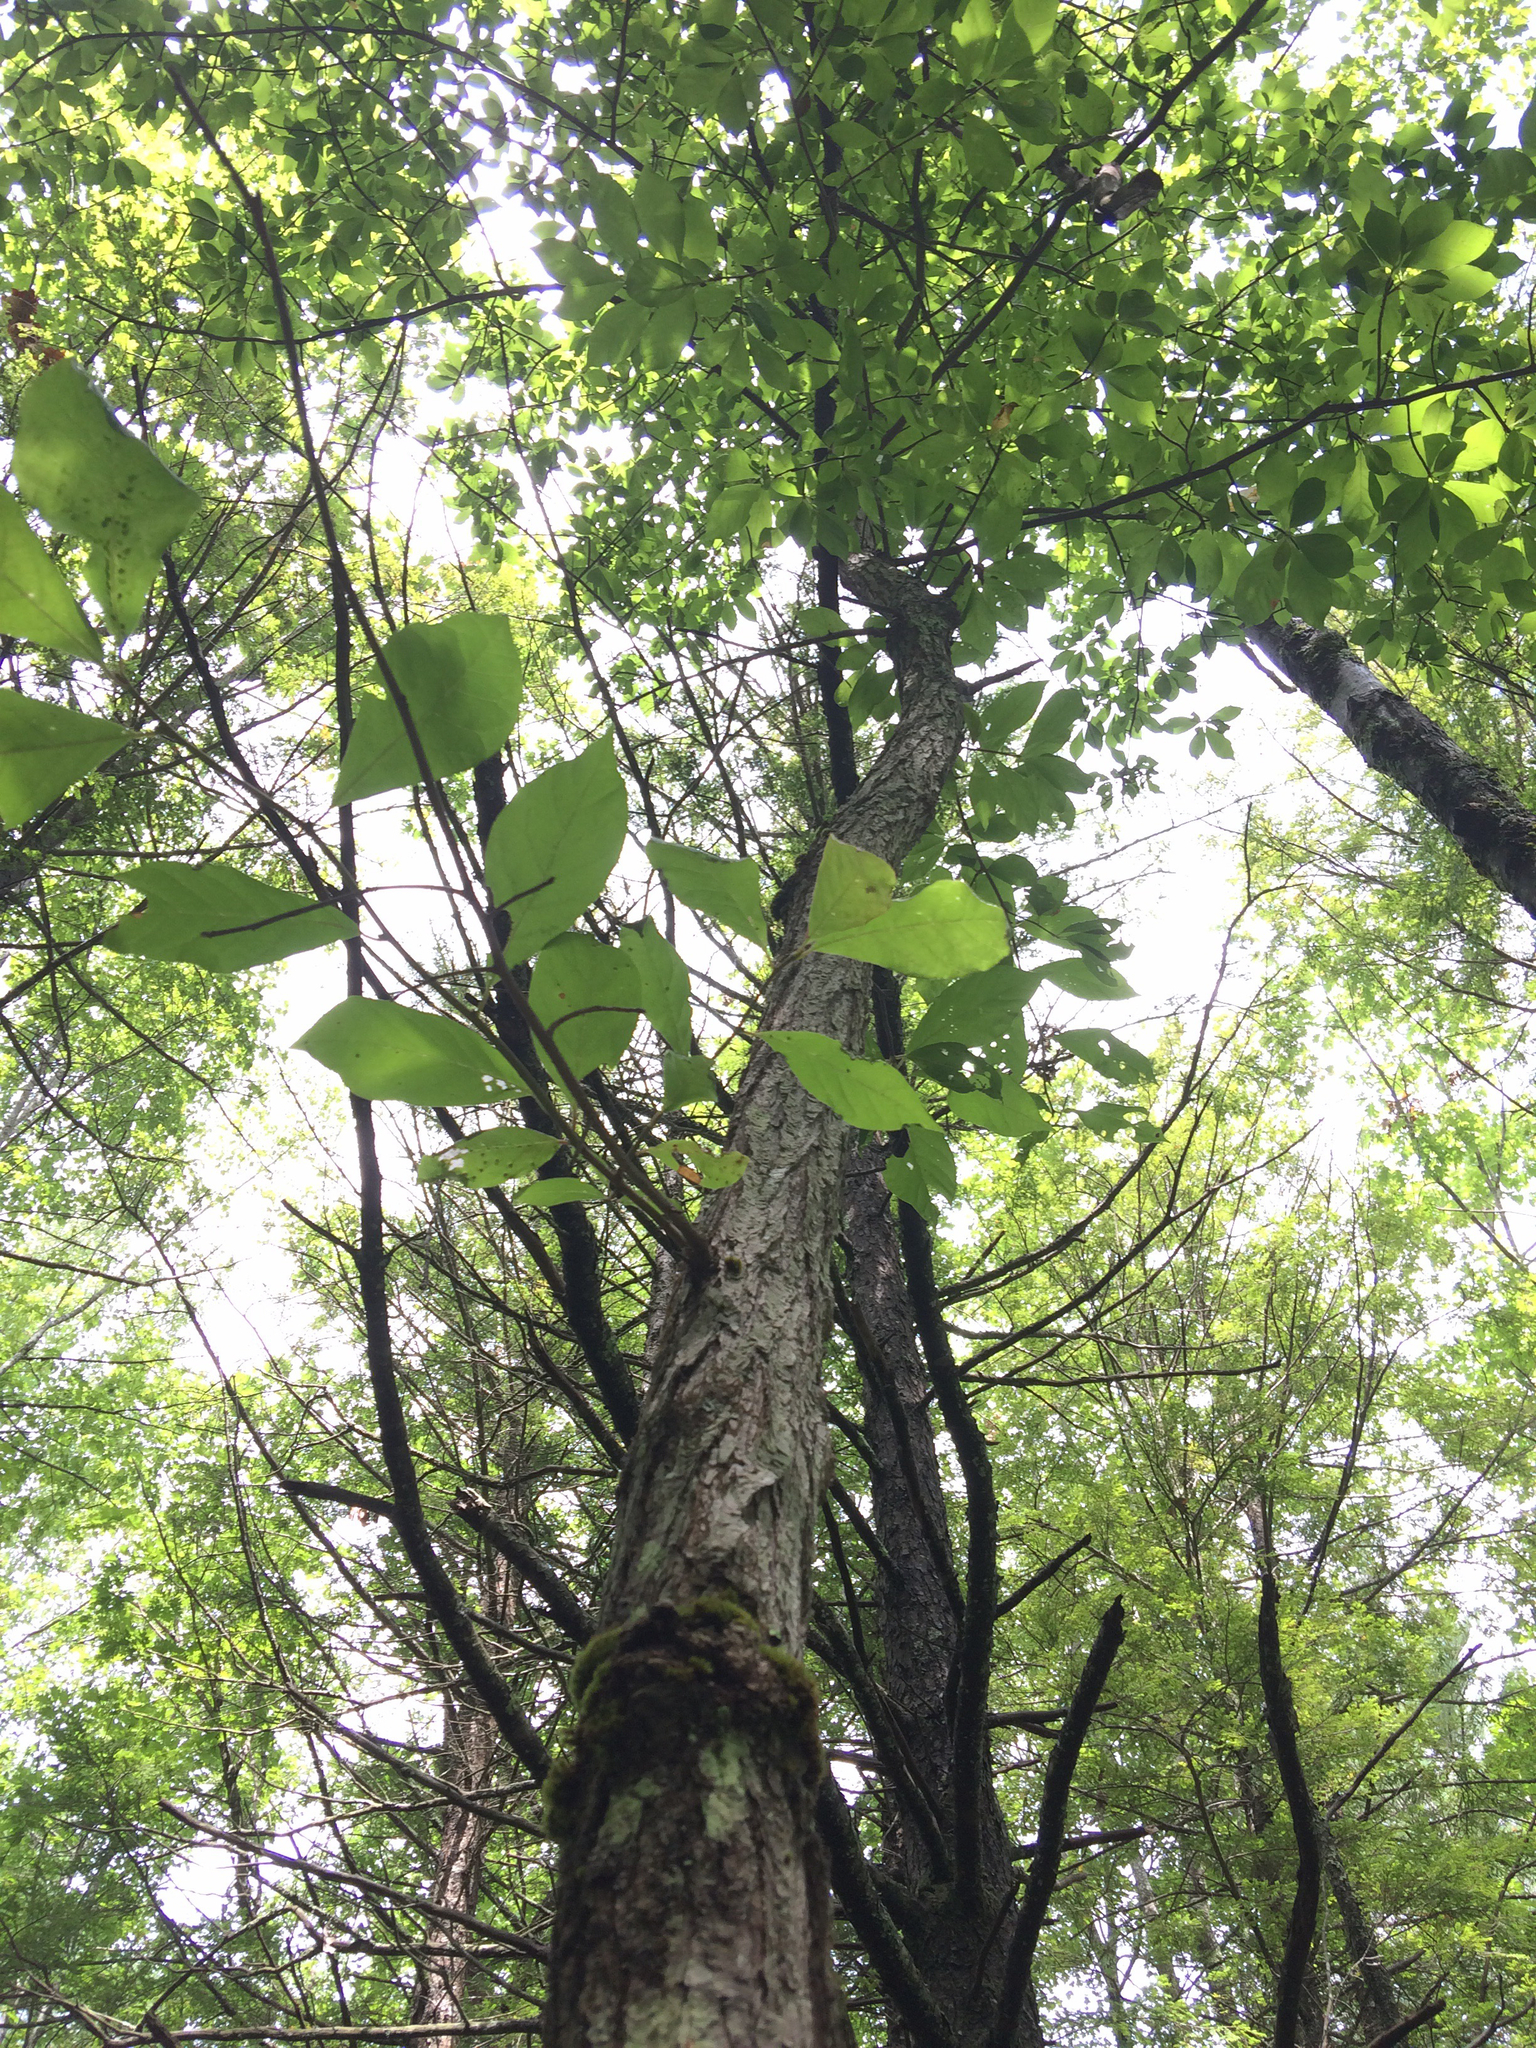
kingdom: Plantae
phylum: Tracheophyta
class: Magnoliopsida
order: Cornales
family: Nyssaceae
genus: Nyssa
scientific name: Nyssa sylvatica
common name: Black tupelo
